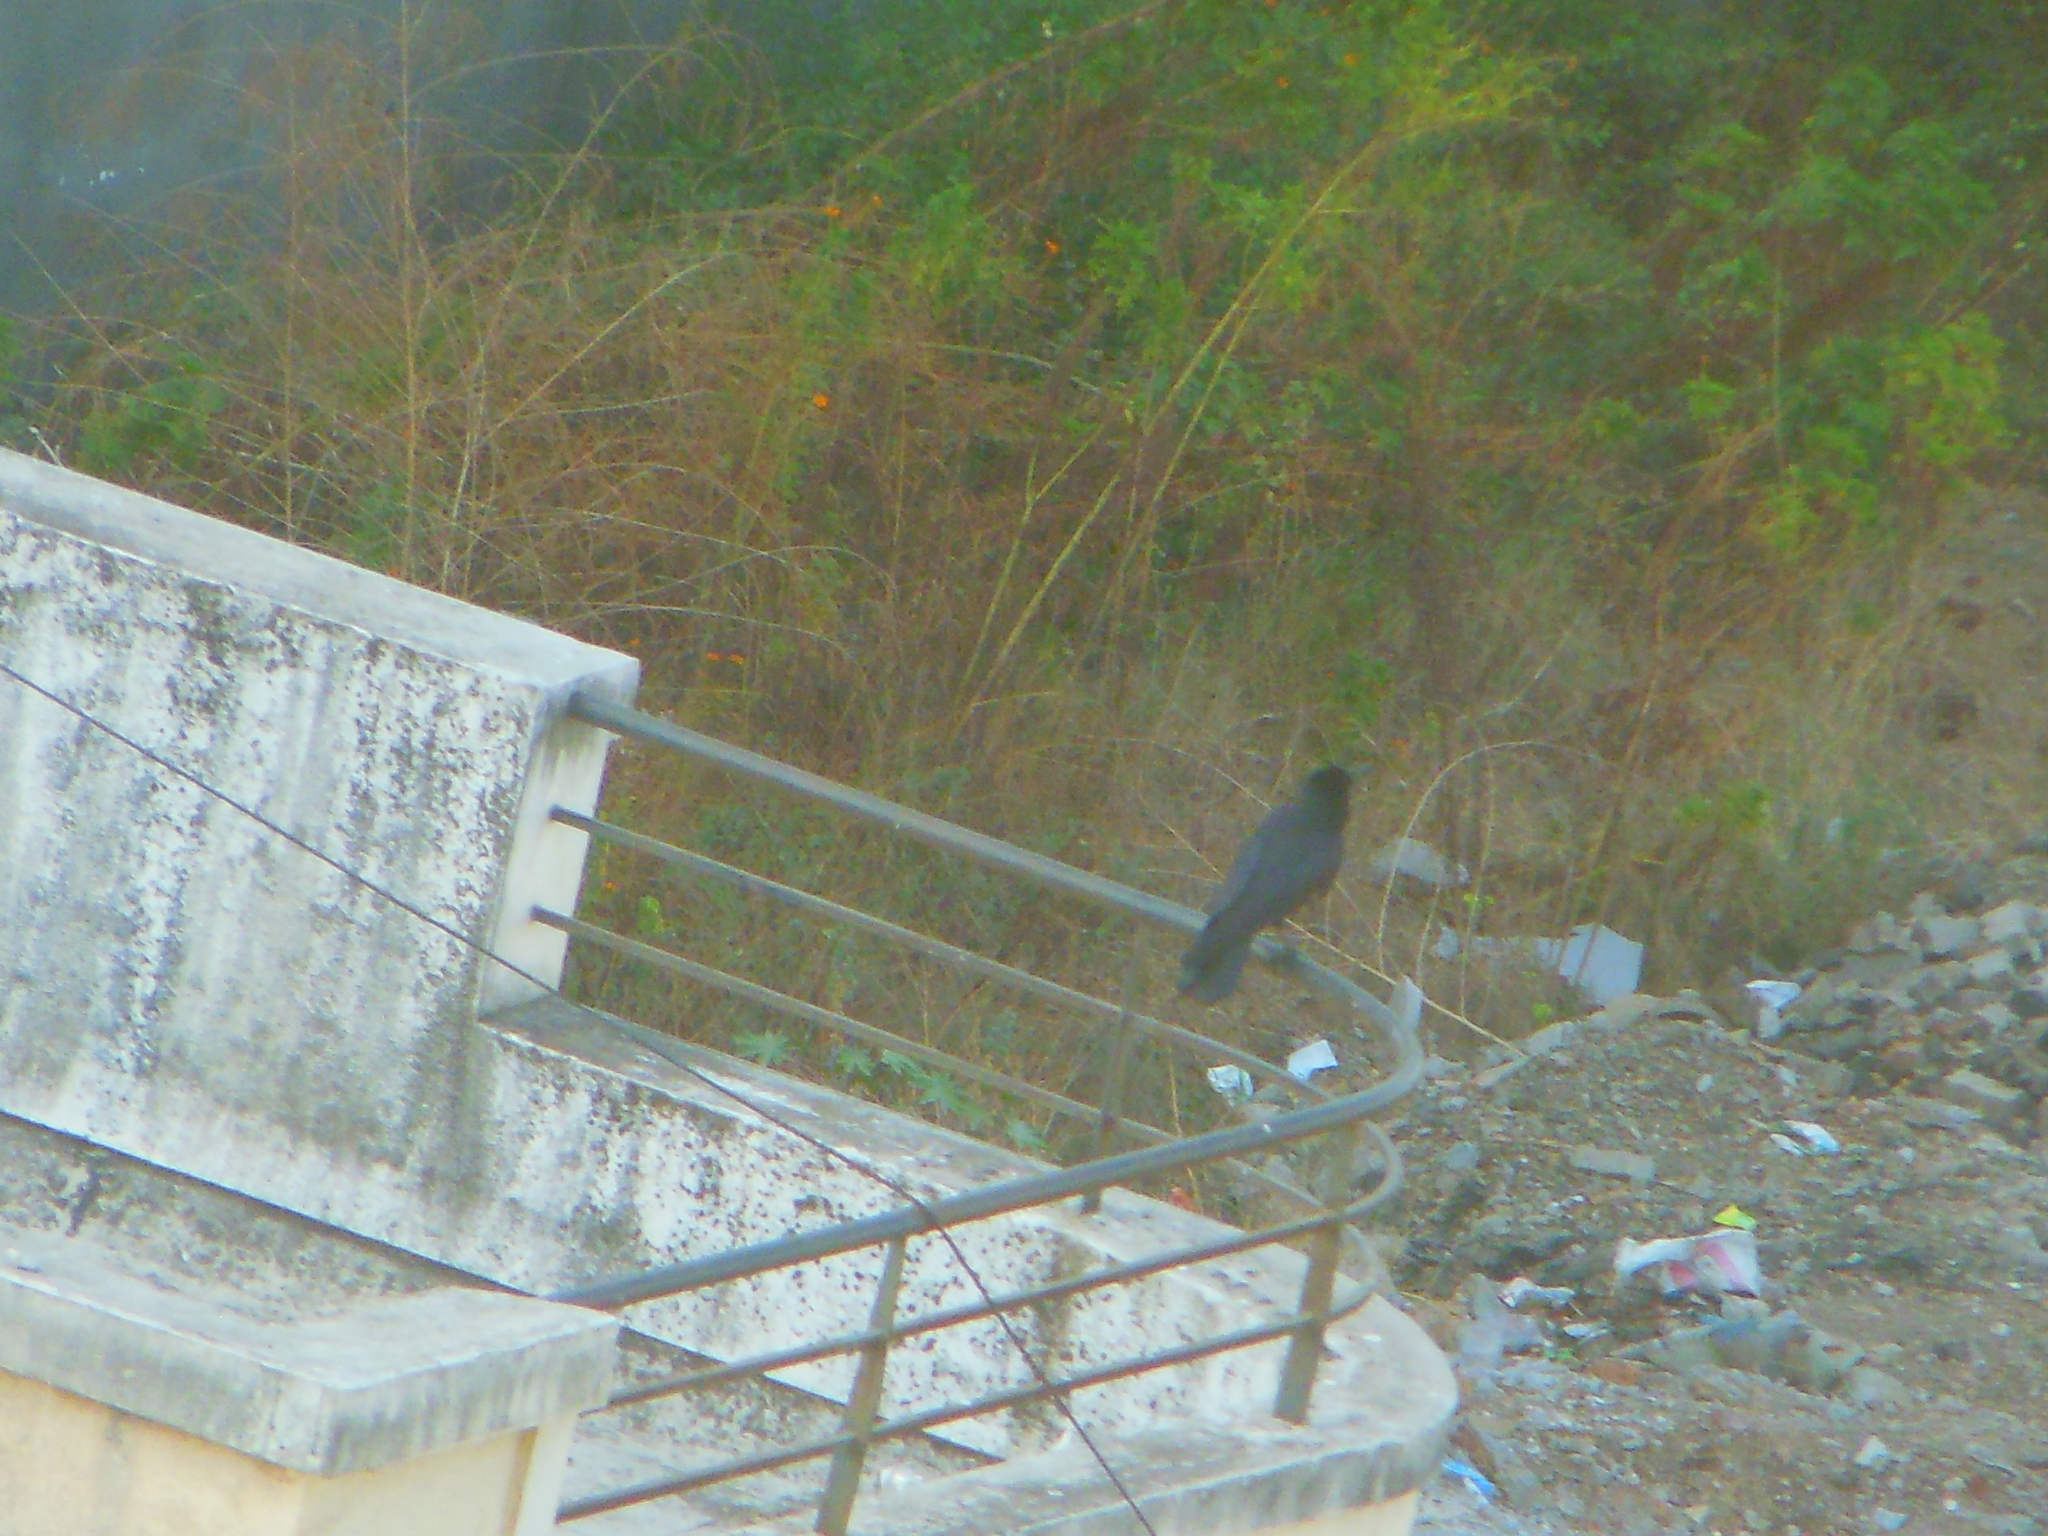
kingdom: Animalia
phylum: Chordata
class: Aves
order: Passeriformes
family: Corvidae
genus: Corvus
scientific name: Corvus macrorhynchos
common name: Large-billed crow
